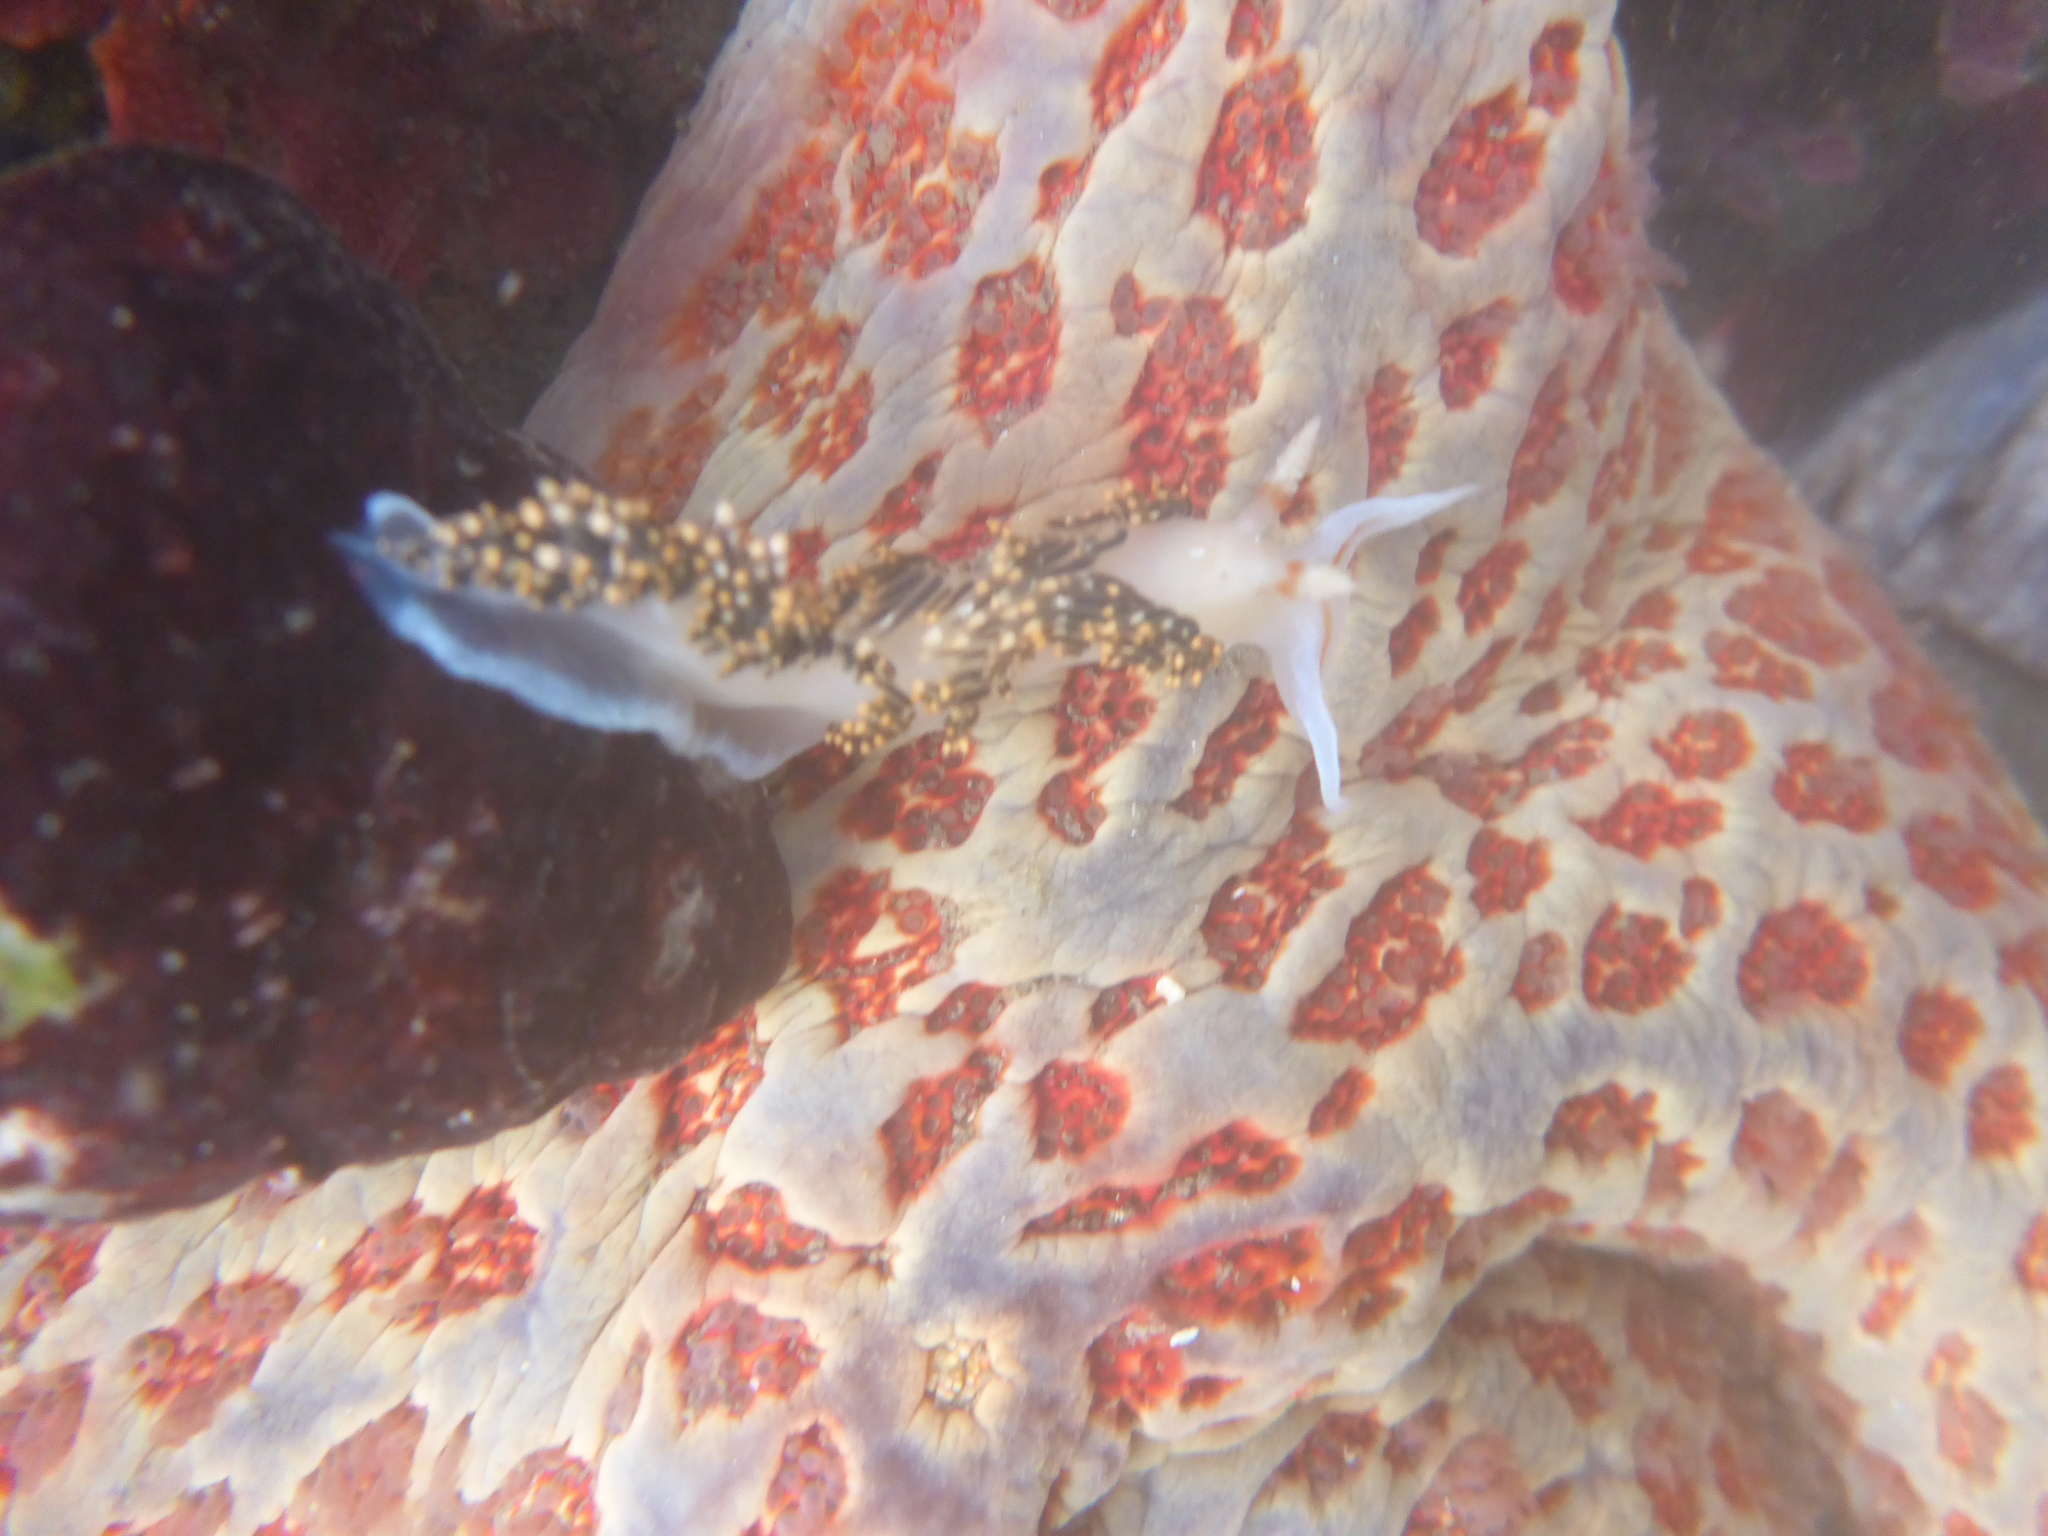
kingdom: Animalia
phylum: Mollusca
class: Gastropoda
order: Nudibranchia
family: Facelinidae
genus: Phidiana
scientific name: Phidiana hiltoni
